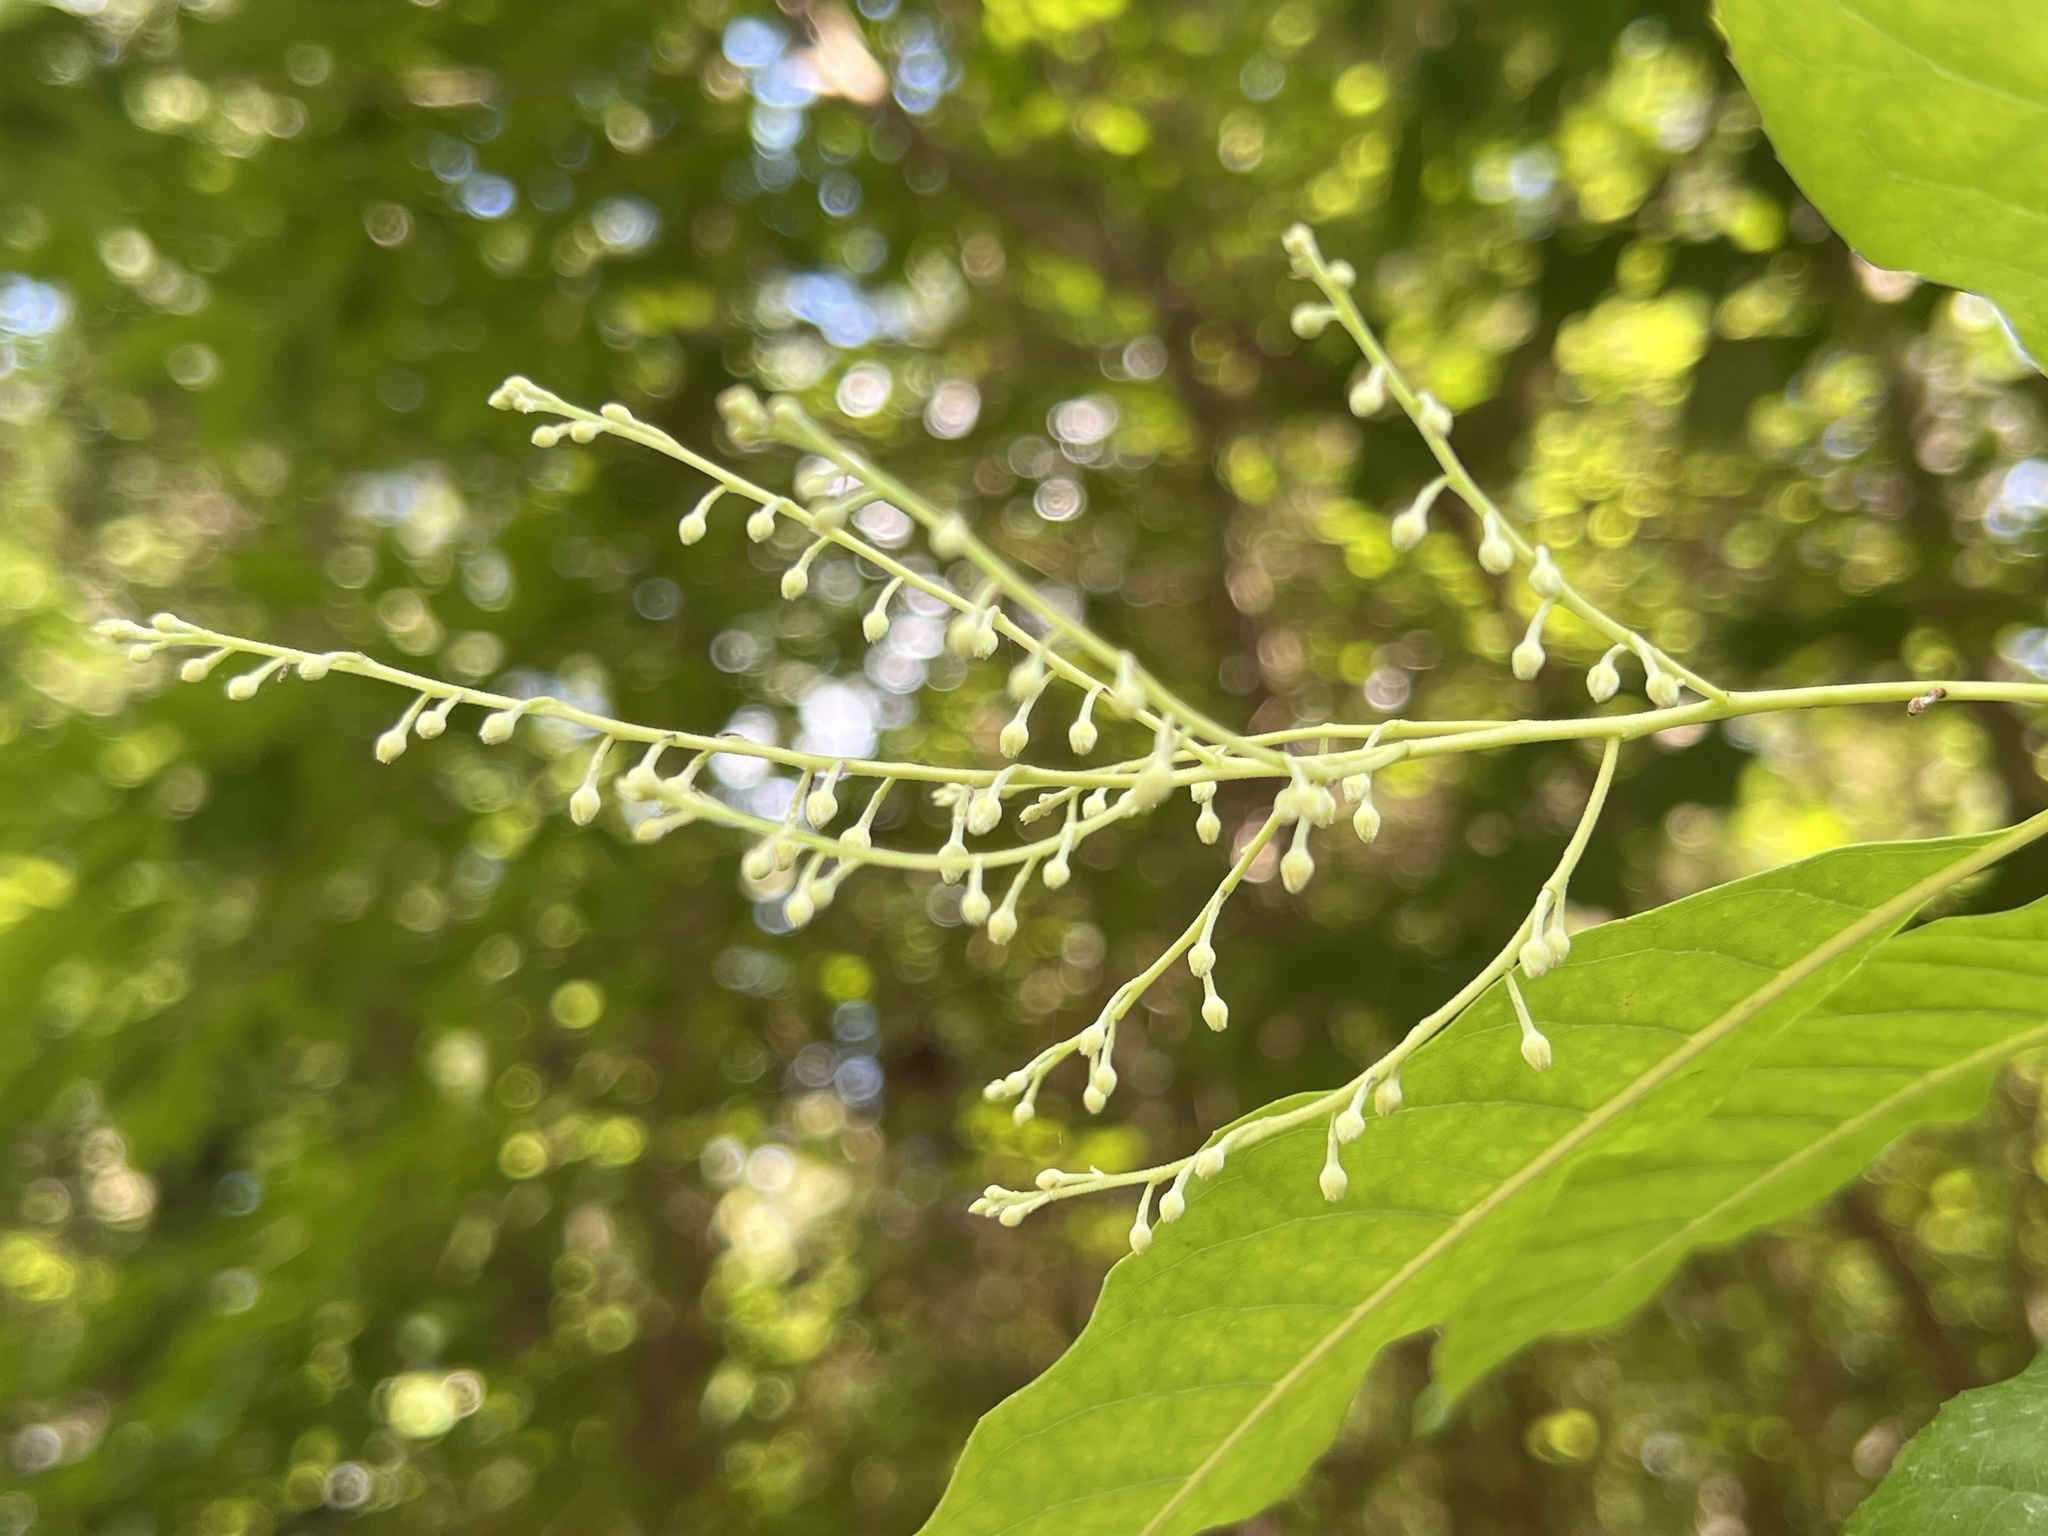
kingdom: Plantae
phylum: Tracheophyta
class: Magnoliopsida
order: Ericales
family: Ericaceae
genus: Oxydendrum
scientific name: Oxydendrum arboreum
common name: Sourwood
